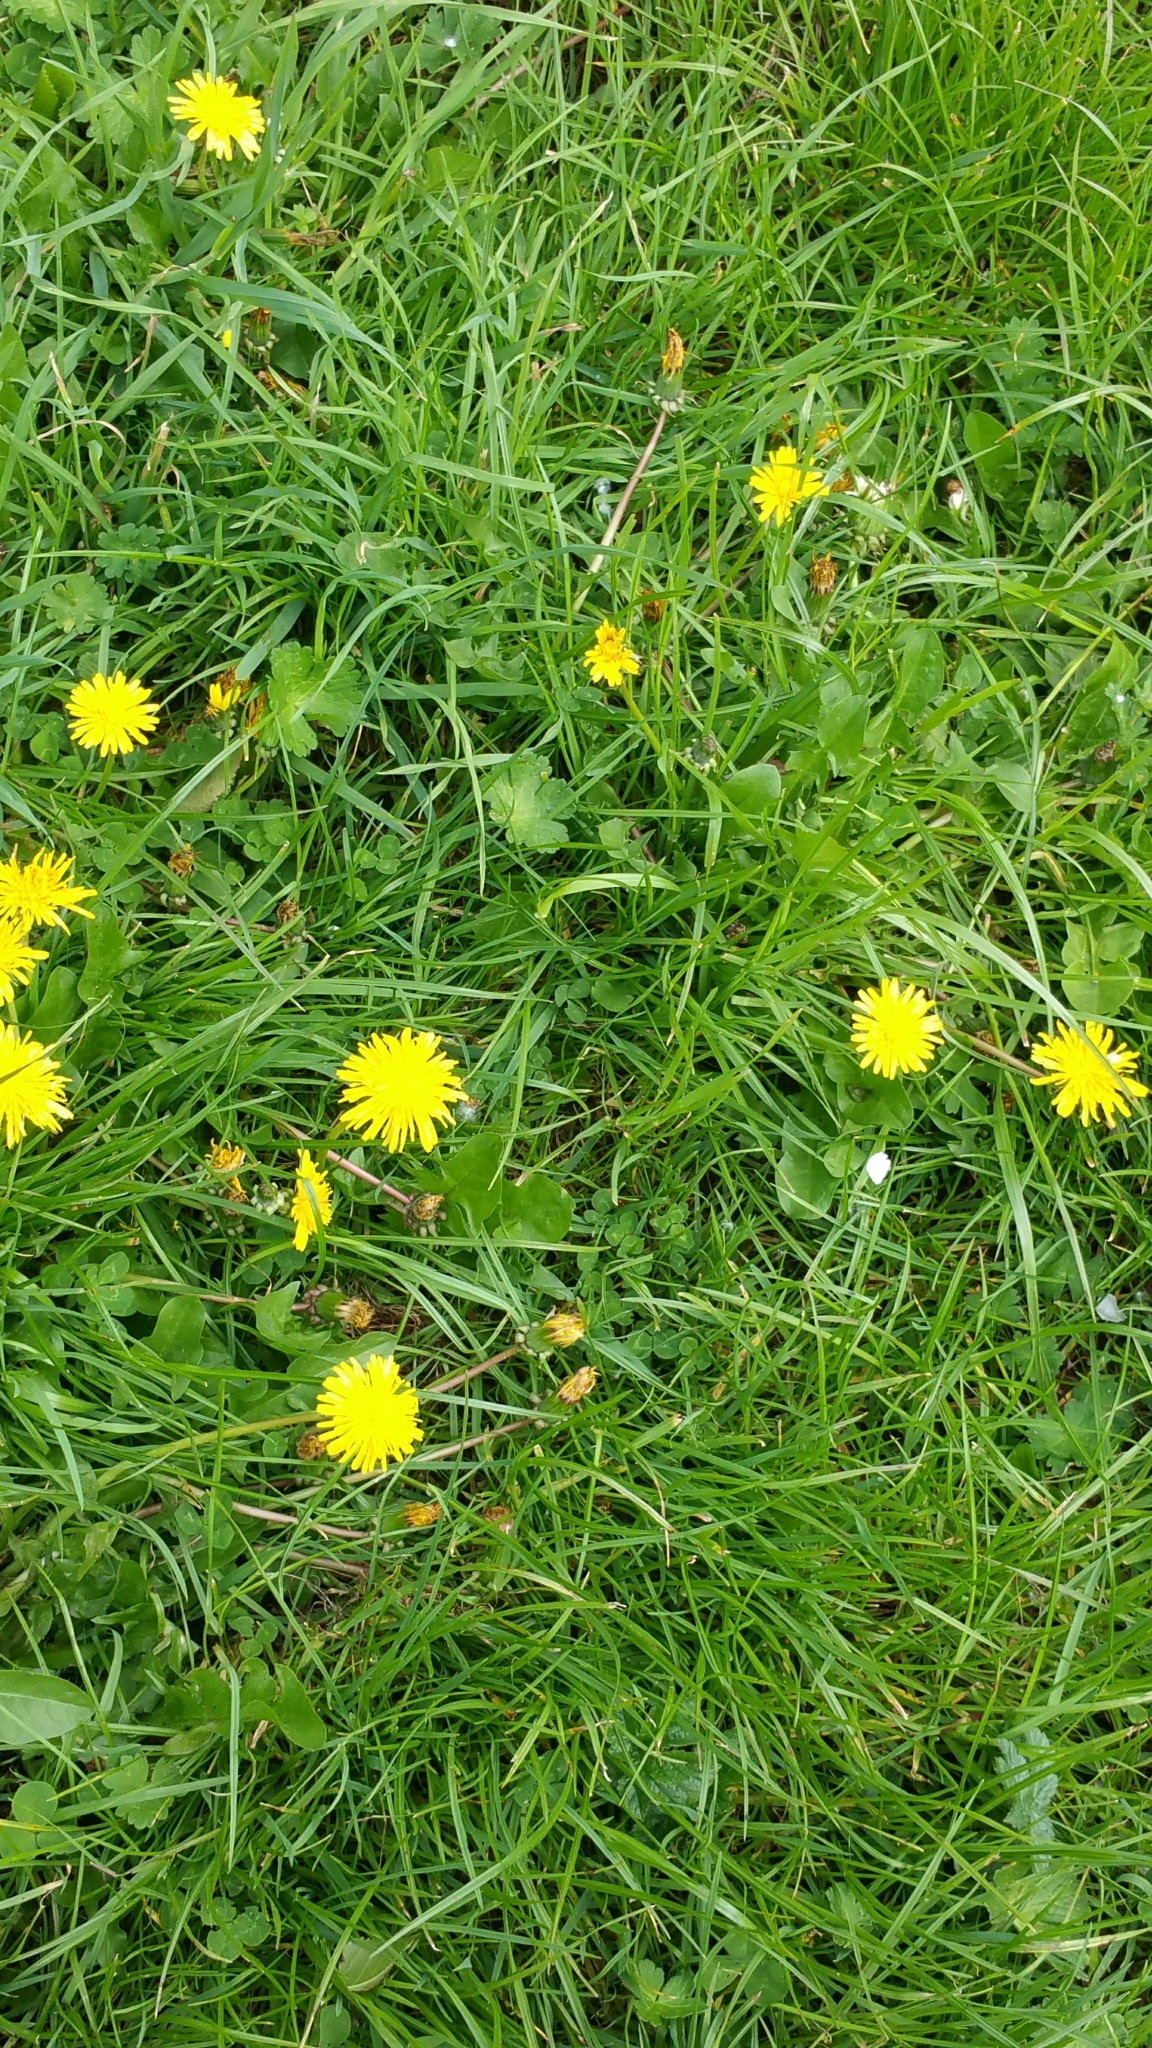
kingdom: Plantae
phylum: Tracheophyta
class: Magnoliopsida
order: Asterales
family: Asteraceae
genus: Taraxacum
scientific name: Taraxacum officinale
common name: Common dandelion
